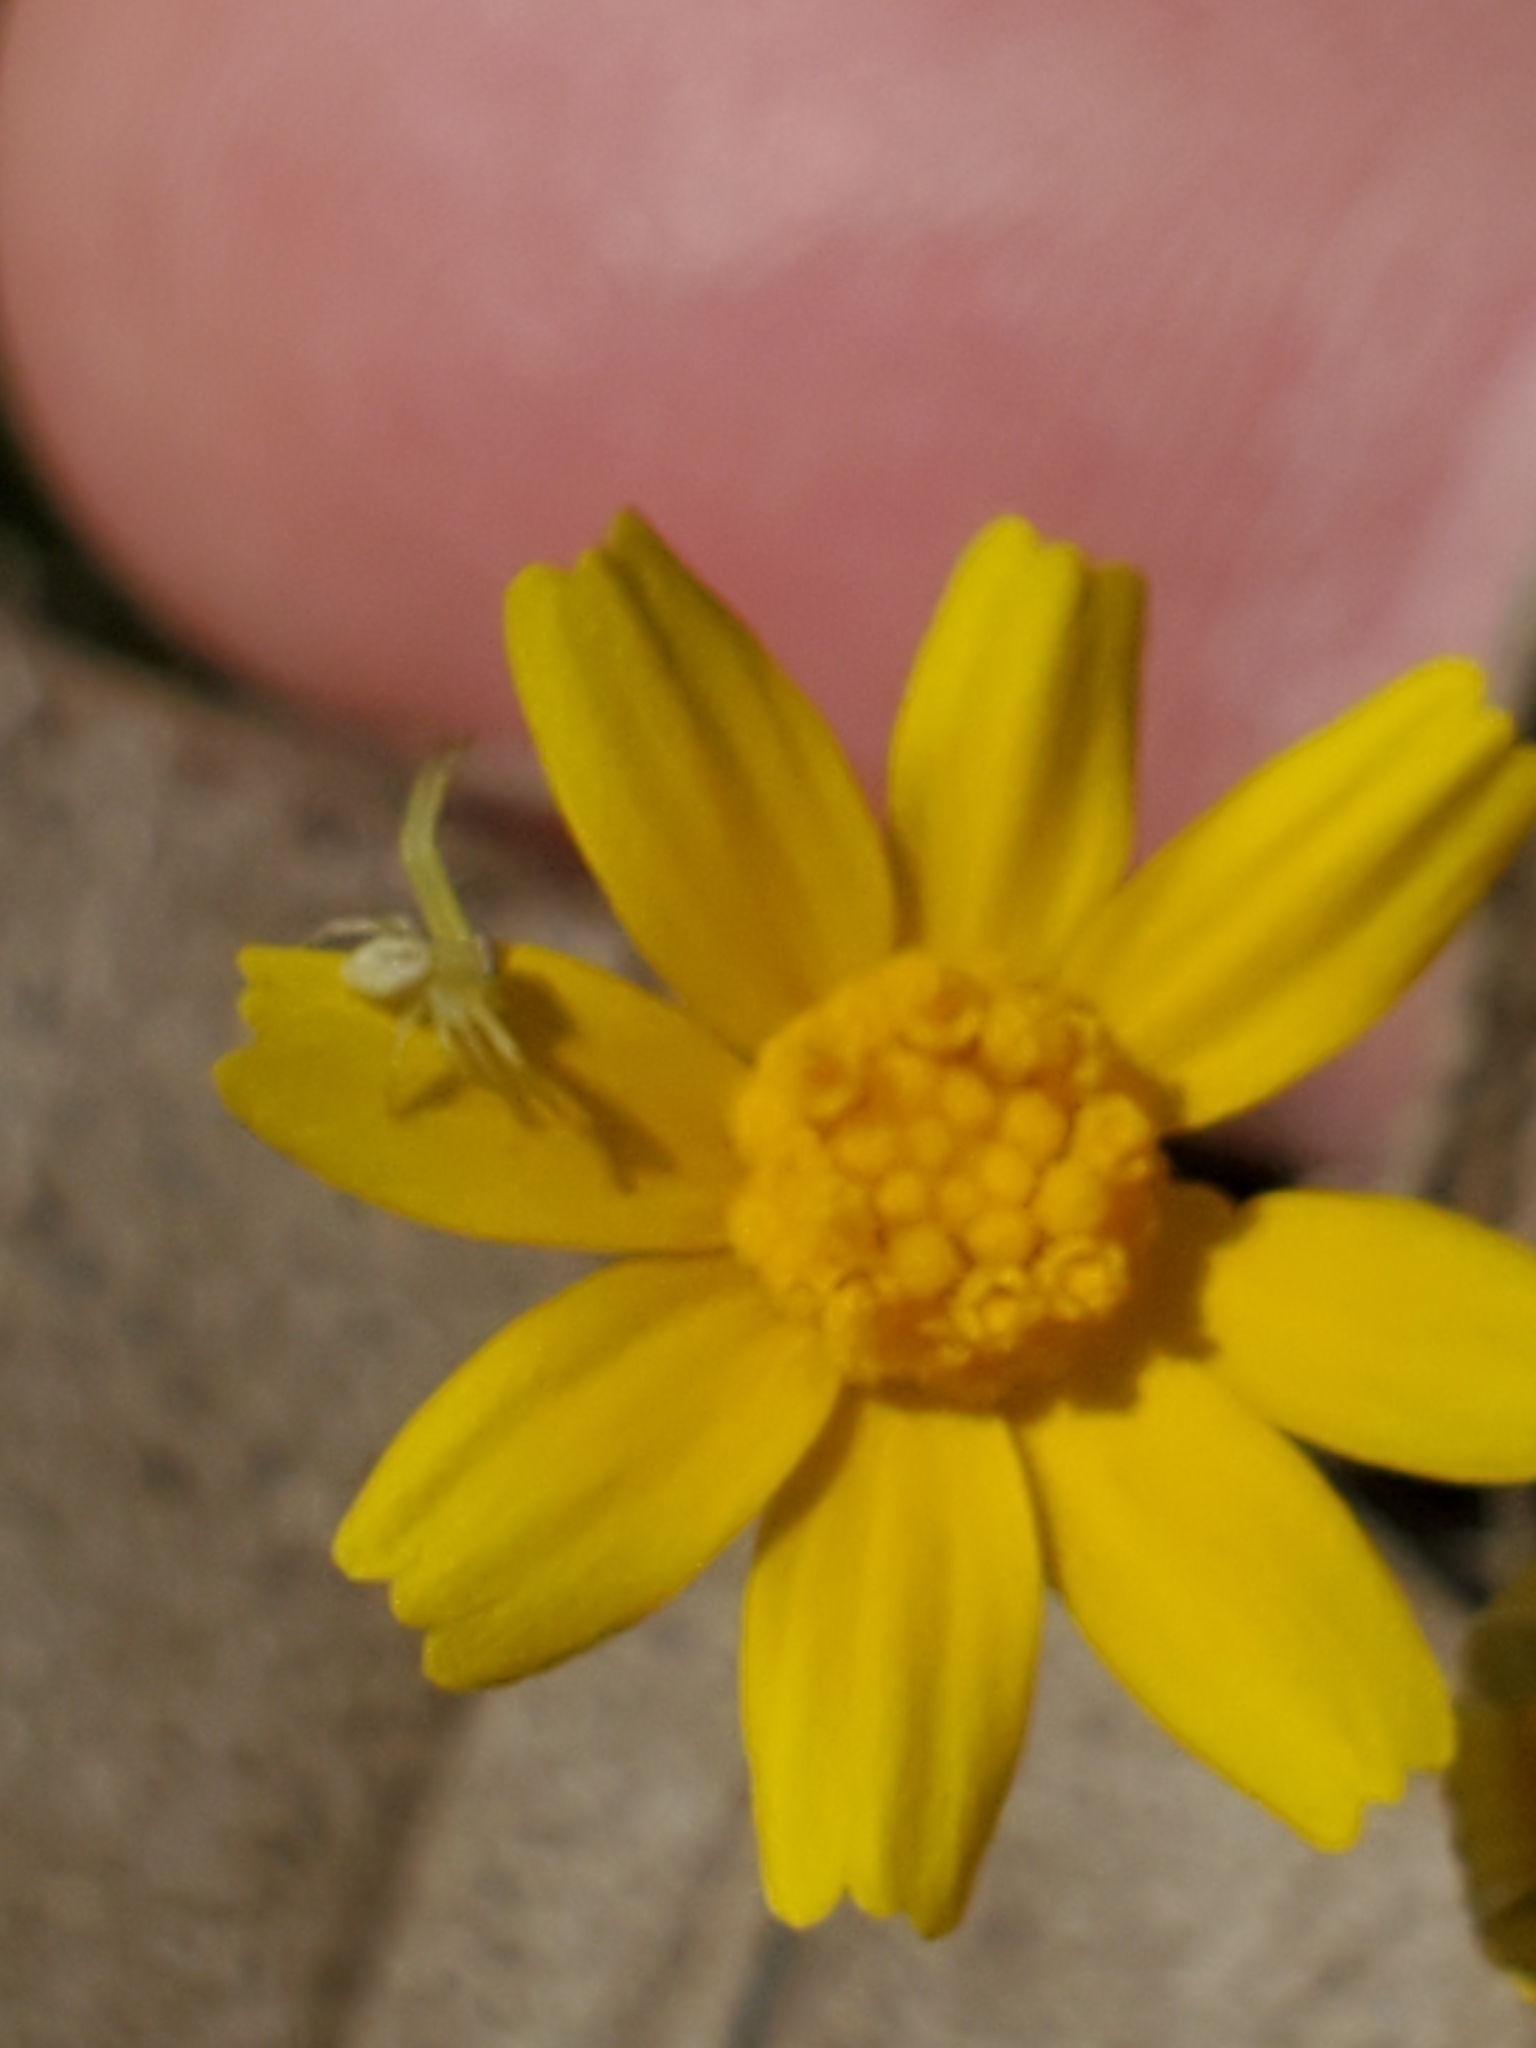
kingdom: Plantae
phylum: Tracheophyta
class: Magnoliopsida
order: Asterales
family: Asteraceae
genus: Tetraneuris
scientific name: Tetraneuris linearifolia
